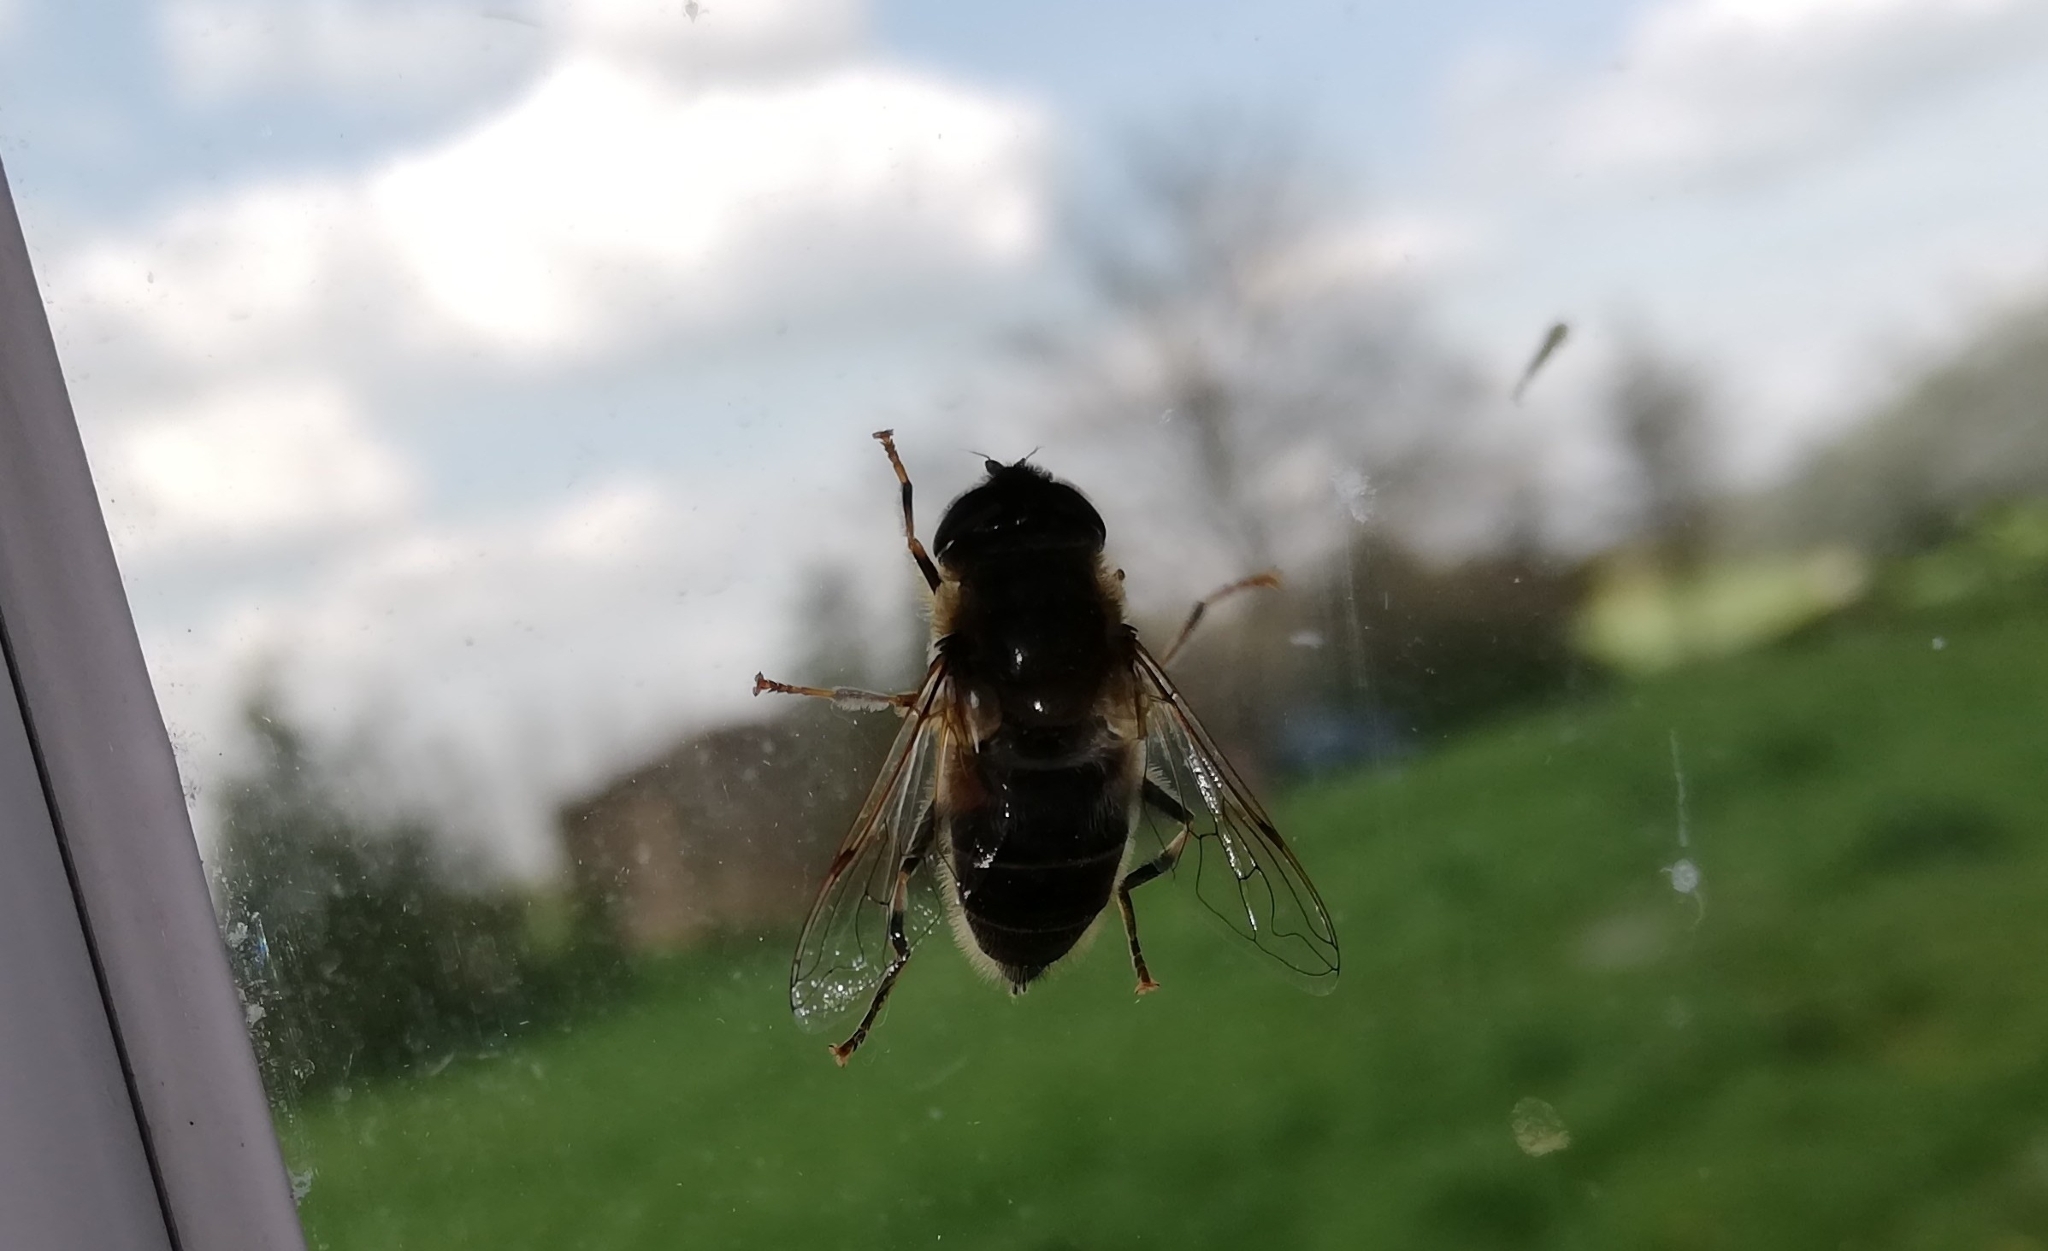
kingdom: Animalia
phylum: Arthropoda
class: Insecta
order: Diptera
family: Syrphidae
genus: Eristalis
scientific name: Eristalis pertinax
